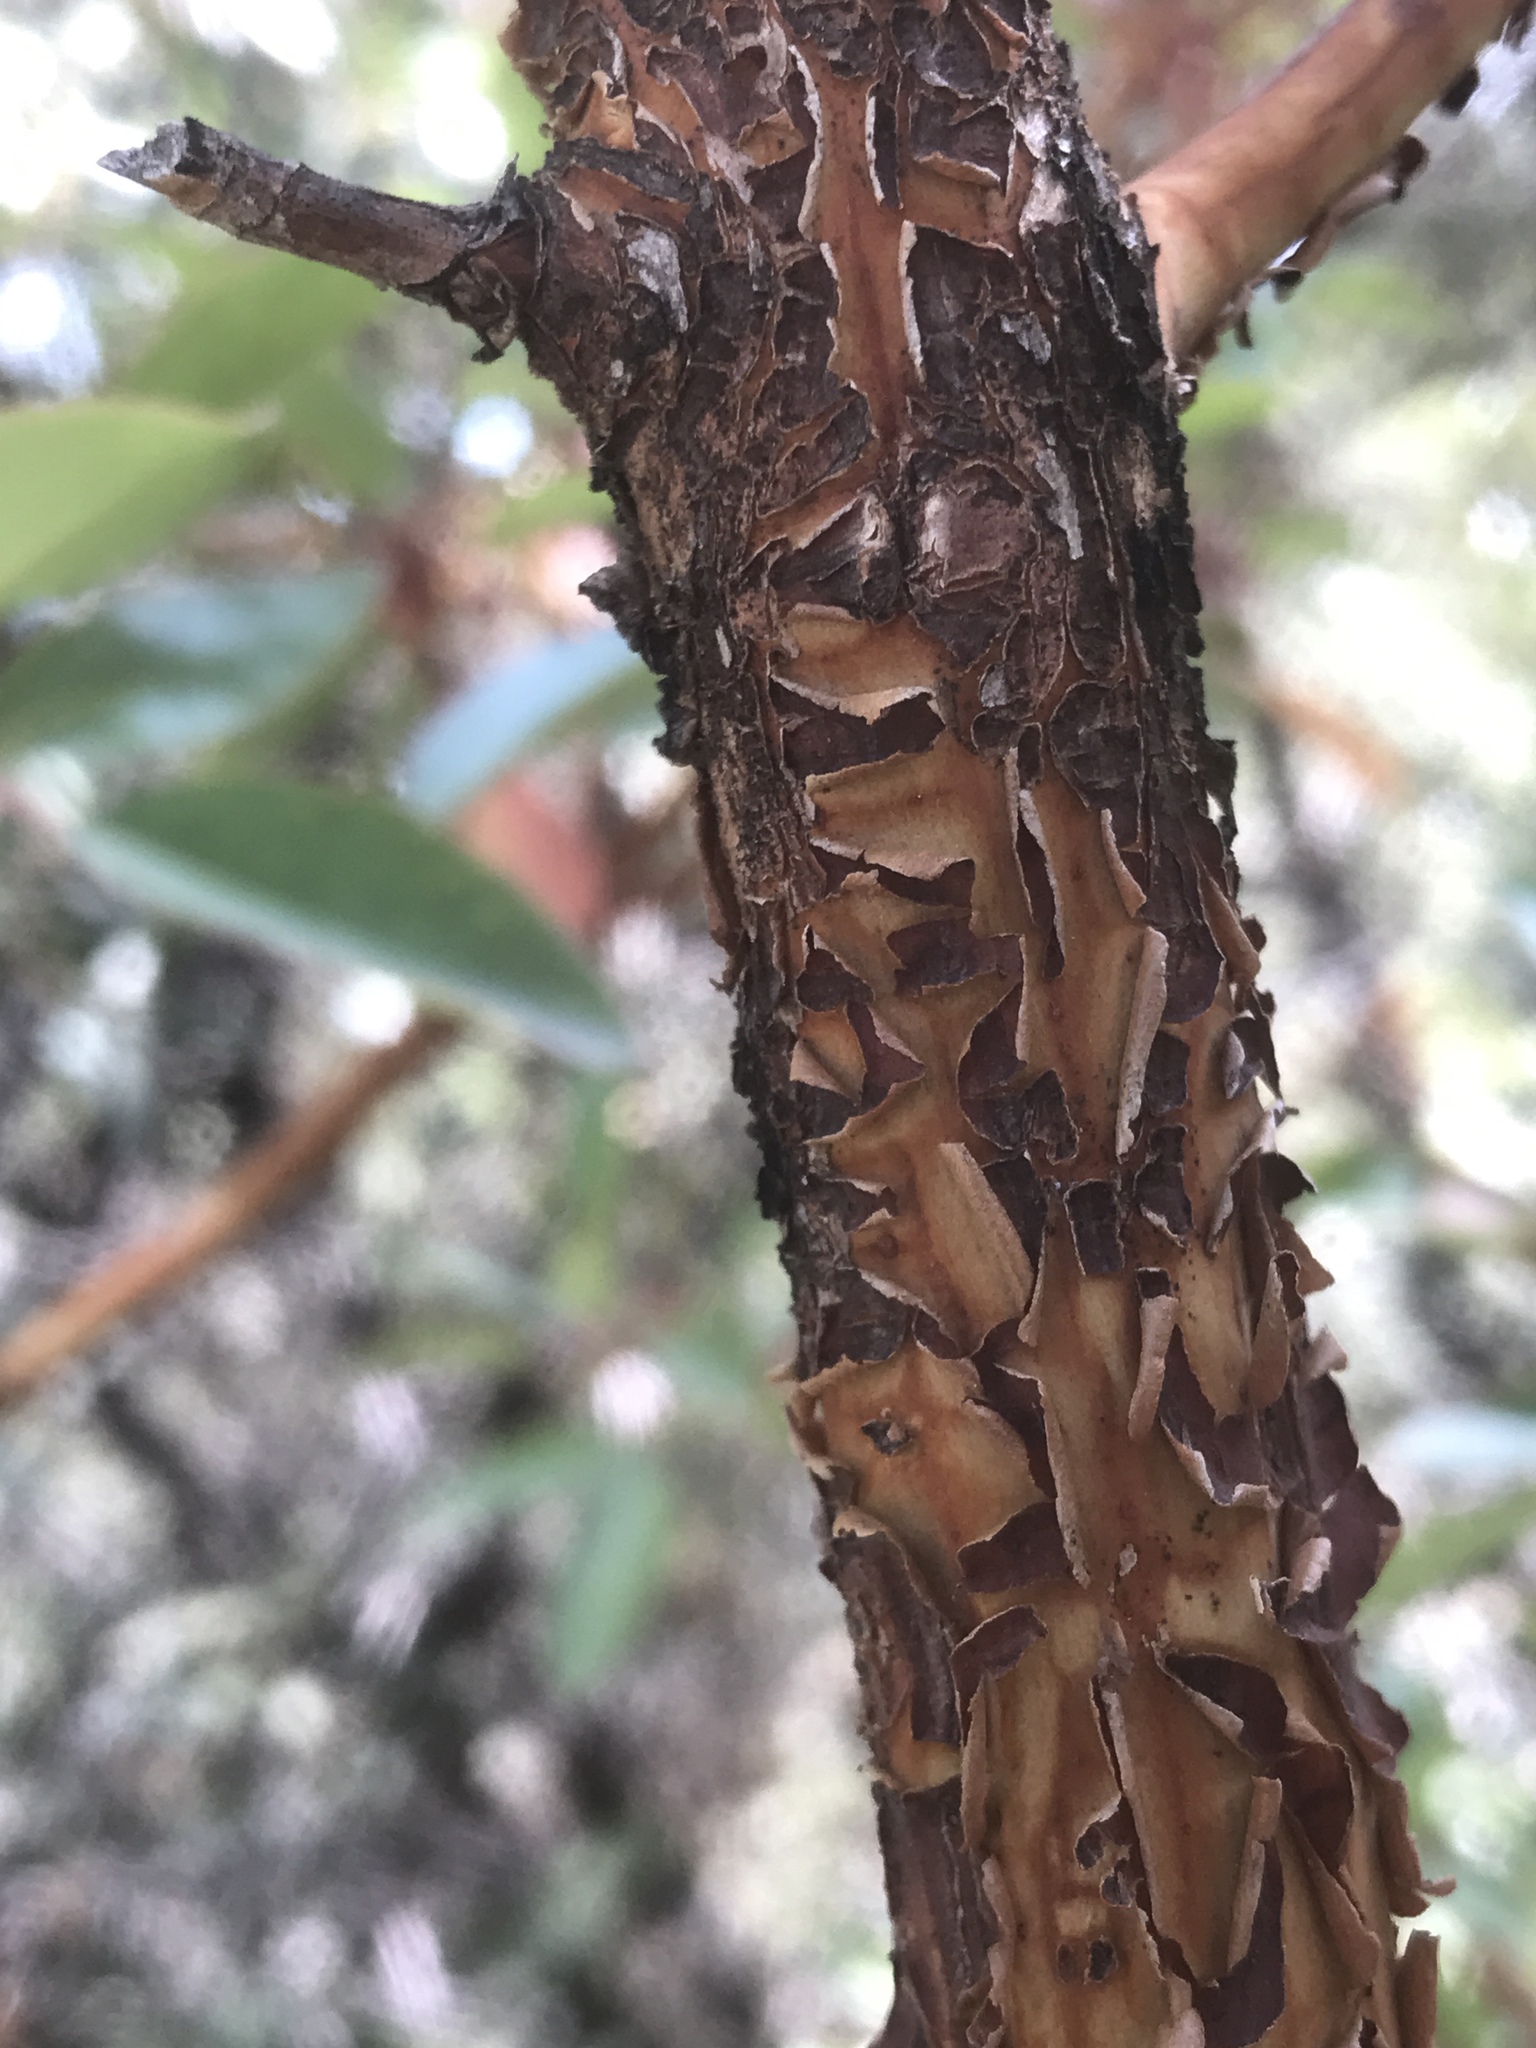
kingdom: Plantae
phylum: Tracheophyta
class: Magnoliopsida
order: Ericales
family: Ericaceae
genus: Arbutus
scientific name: Arbutus arizonica
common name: Arizona madrone
